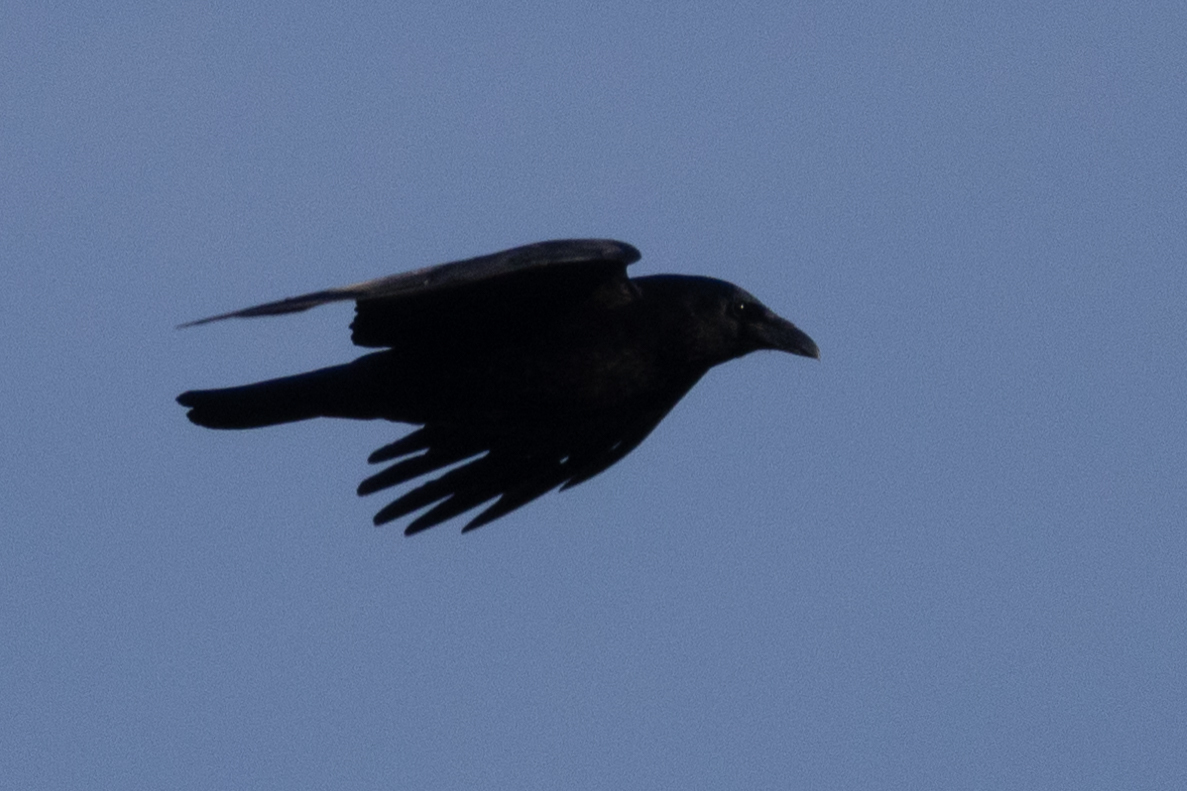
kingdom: Animalia
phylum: Chordata
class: Aves
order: Passeriformes
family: Corvidae
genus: Corvus
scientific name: Corvus corone
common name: Carrion crow
